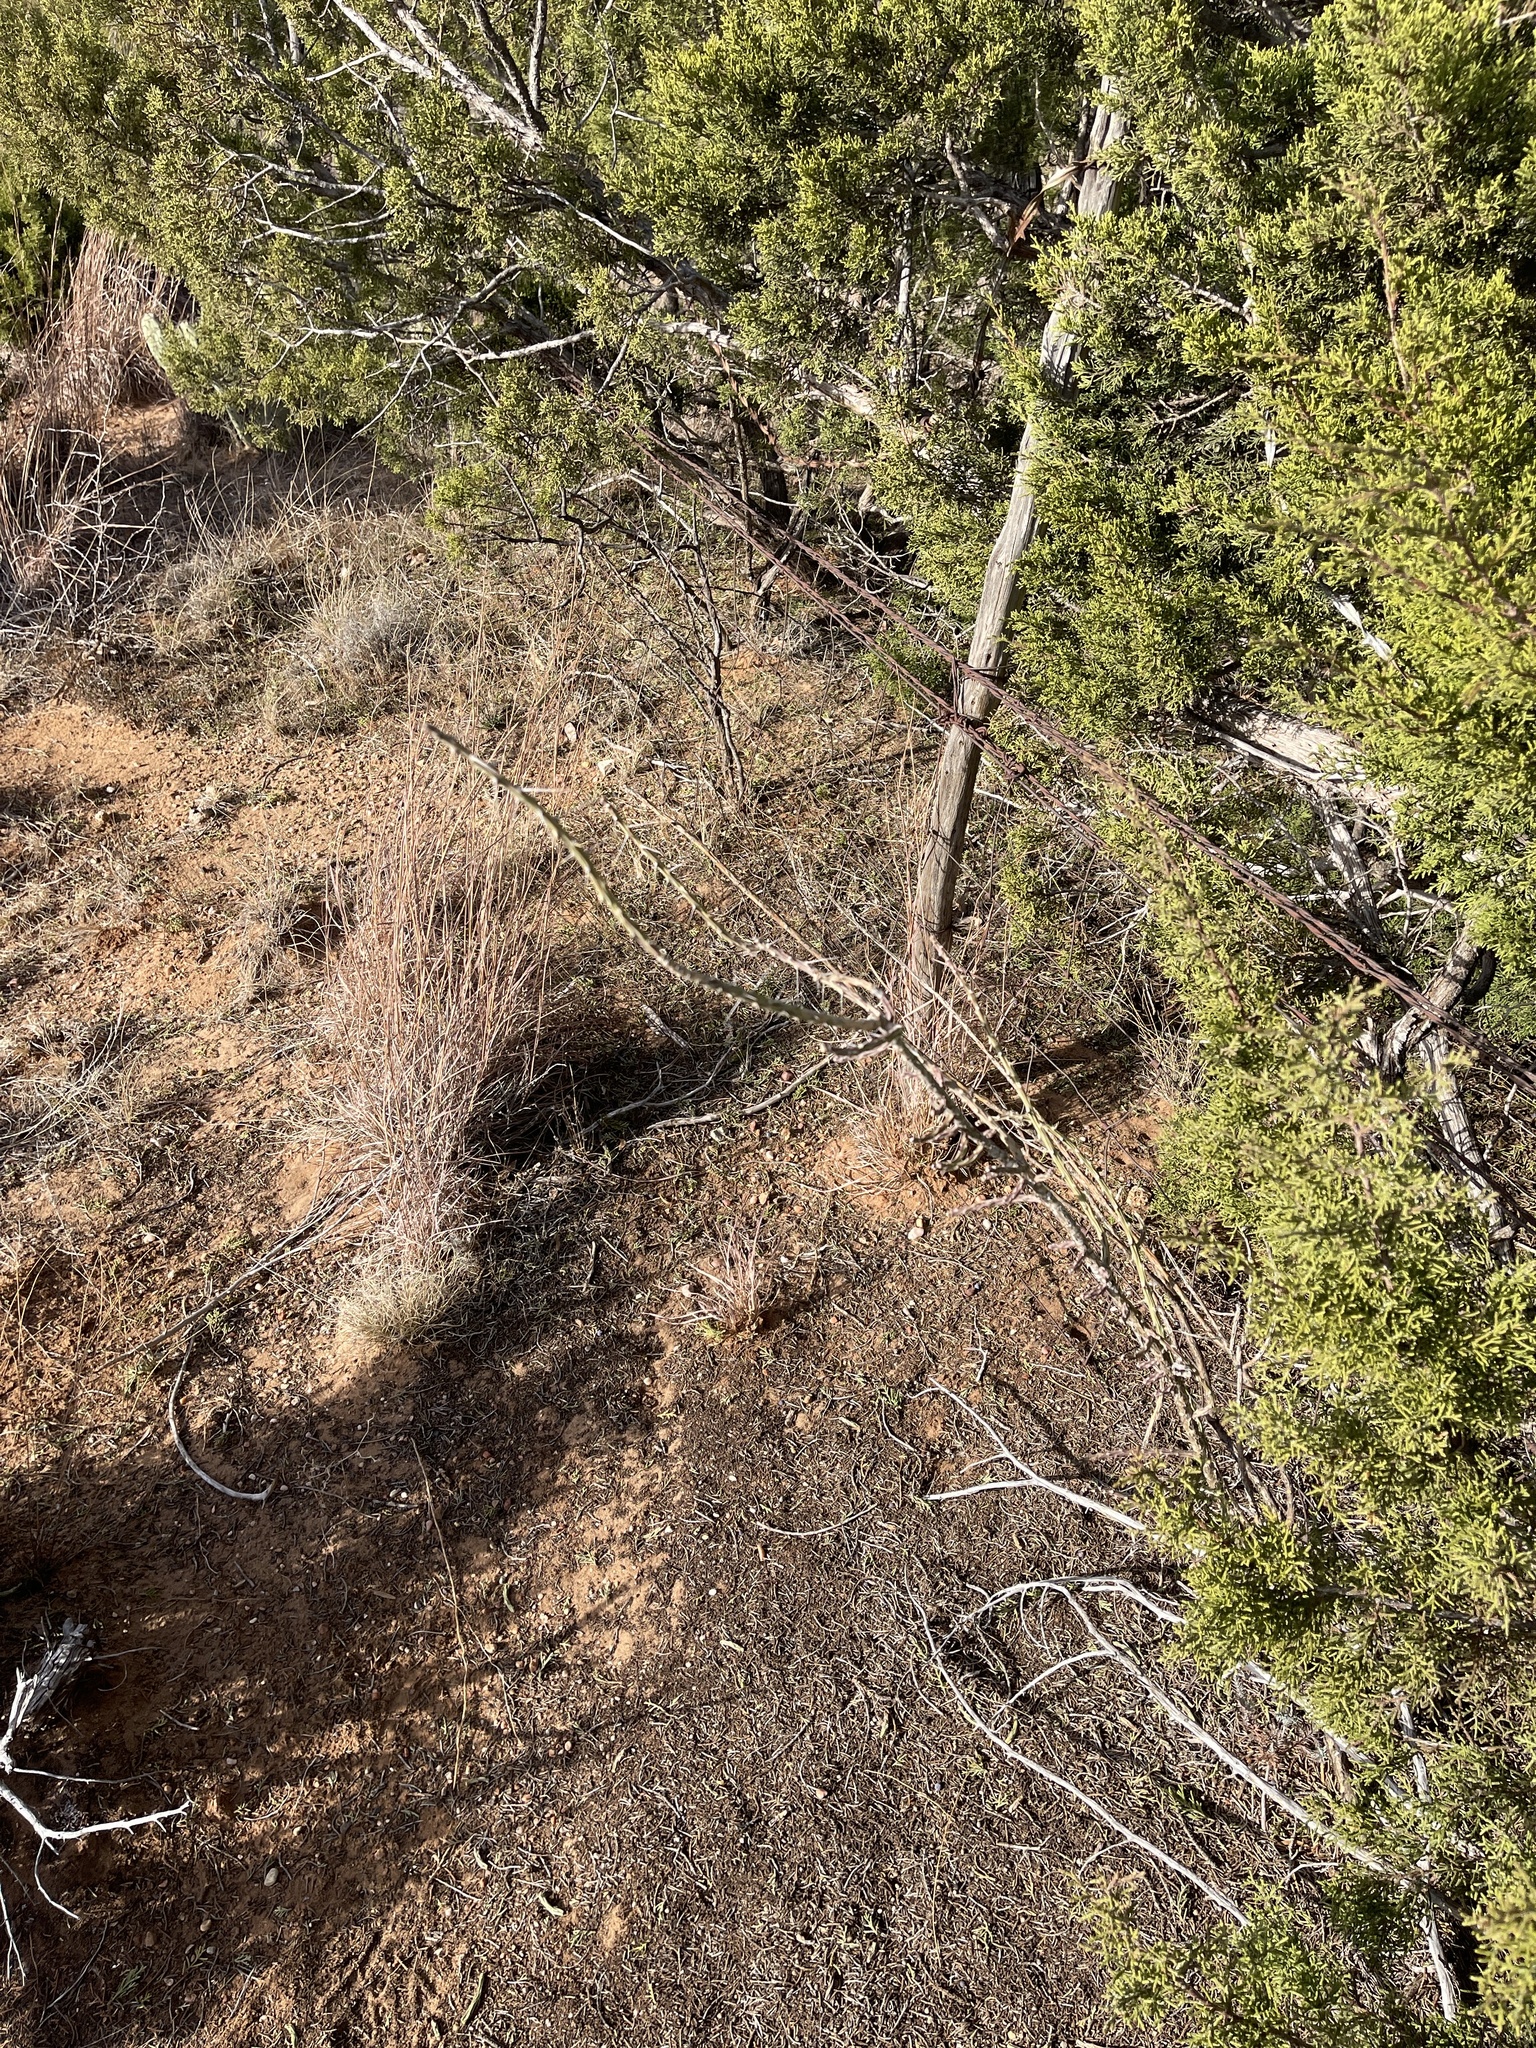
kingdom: Plantae
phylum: Tracheophyta
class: Magnoliopsida
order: Caryophyllales
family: Cactaceae
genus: Cylindropuntia
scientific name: Cylindropuntia leptocaulis
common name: Christmas cactus
